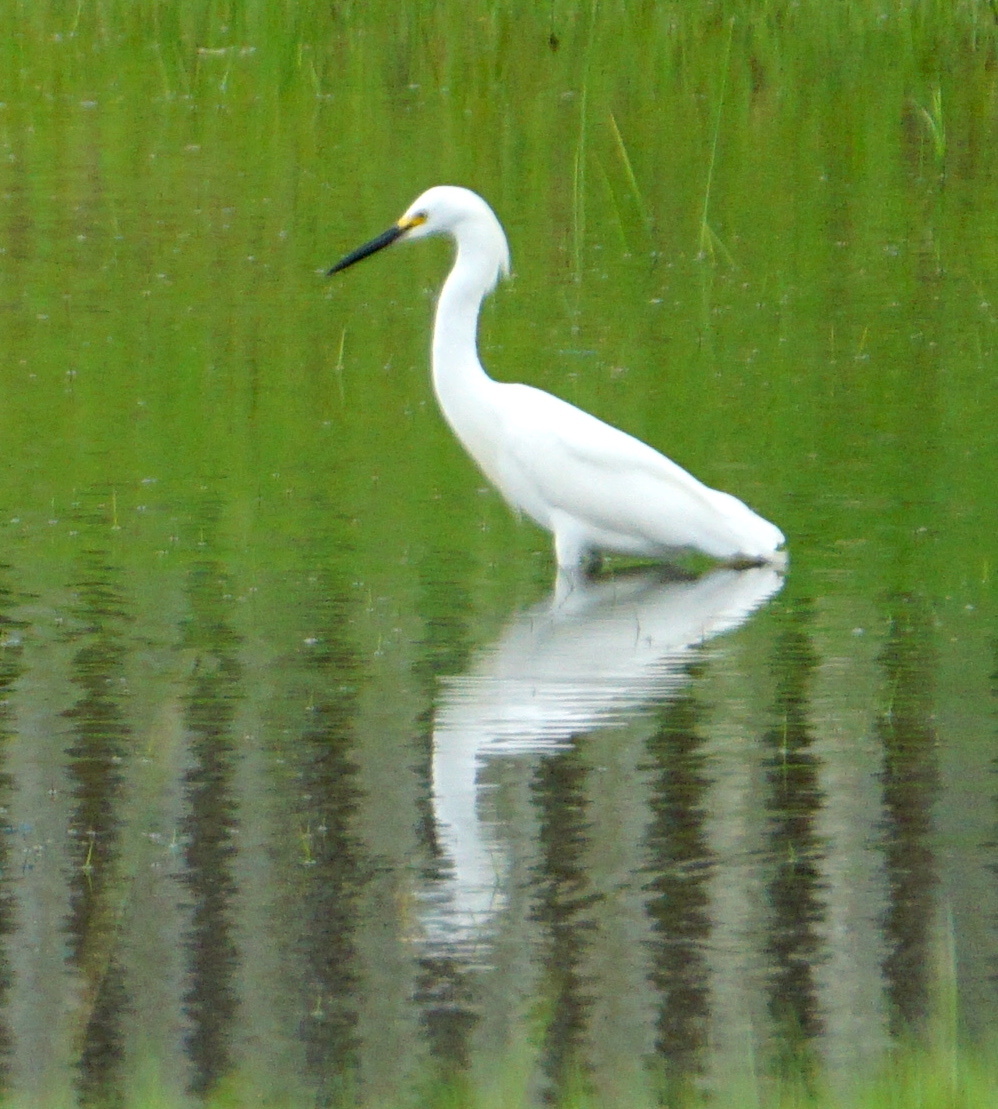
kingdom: Animalia
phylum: Chordata
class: Aves
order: Pelecaniformes
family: Ardeidae
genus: Egretta
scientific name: Egretta thula
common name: Snowy egret
